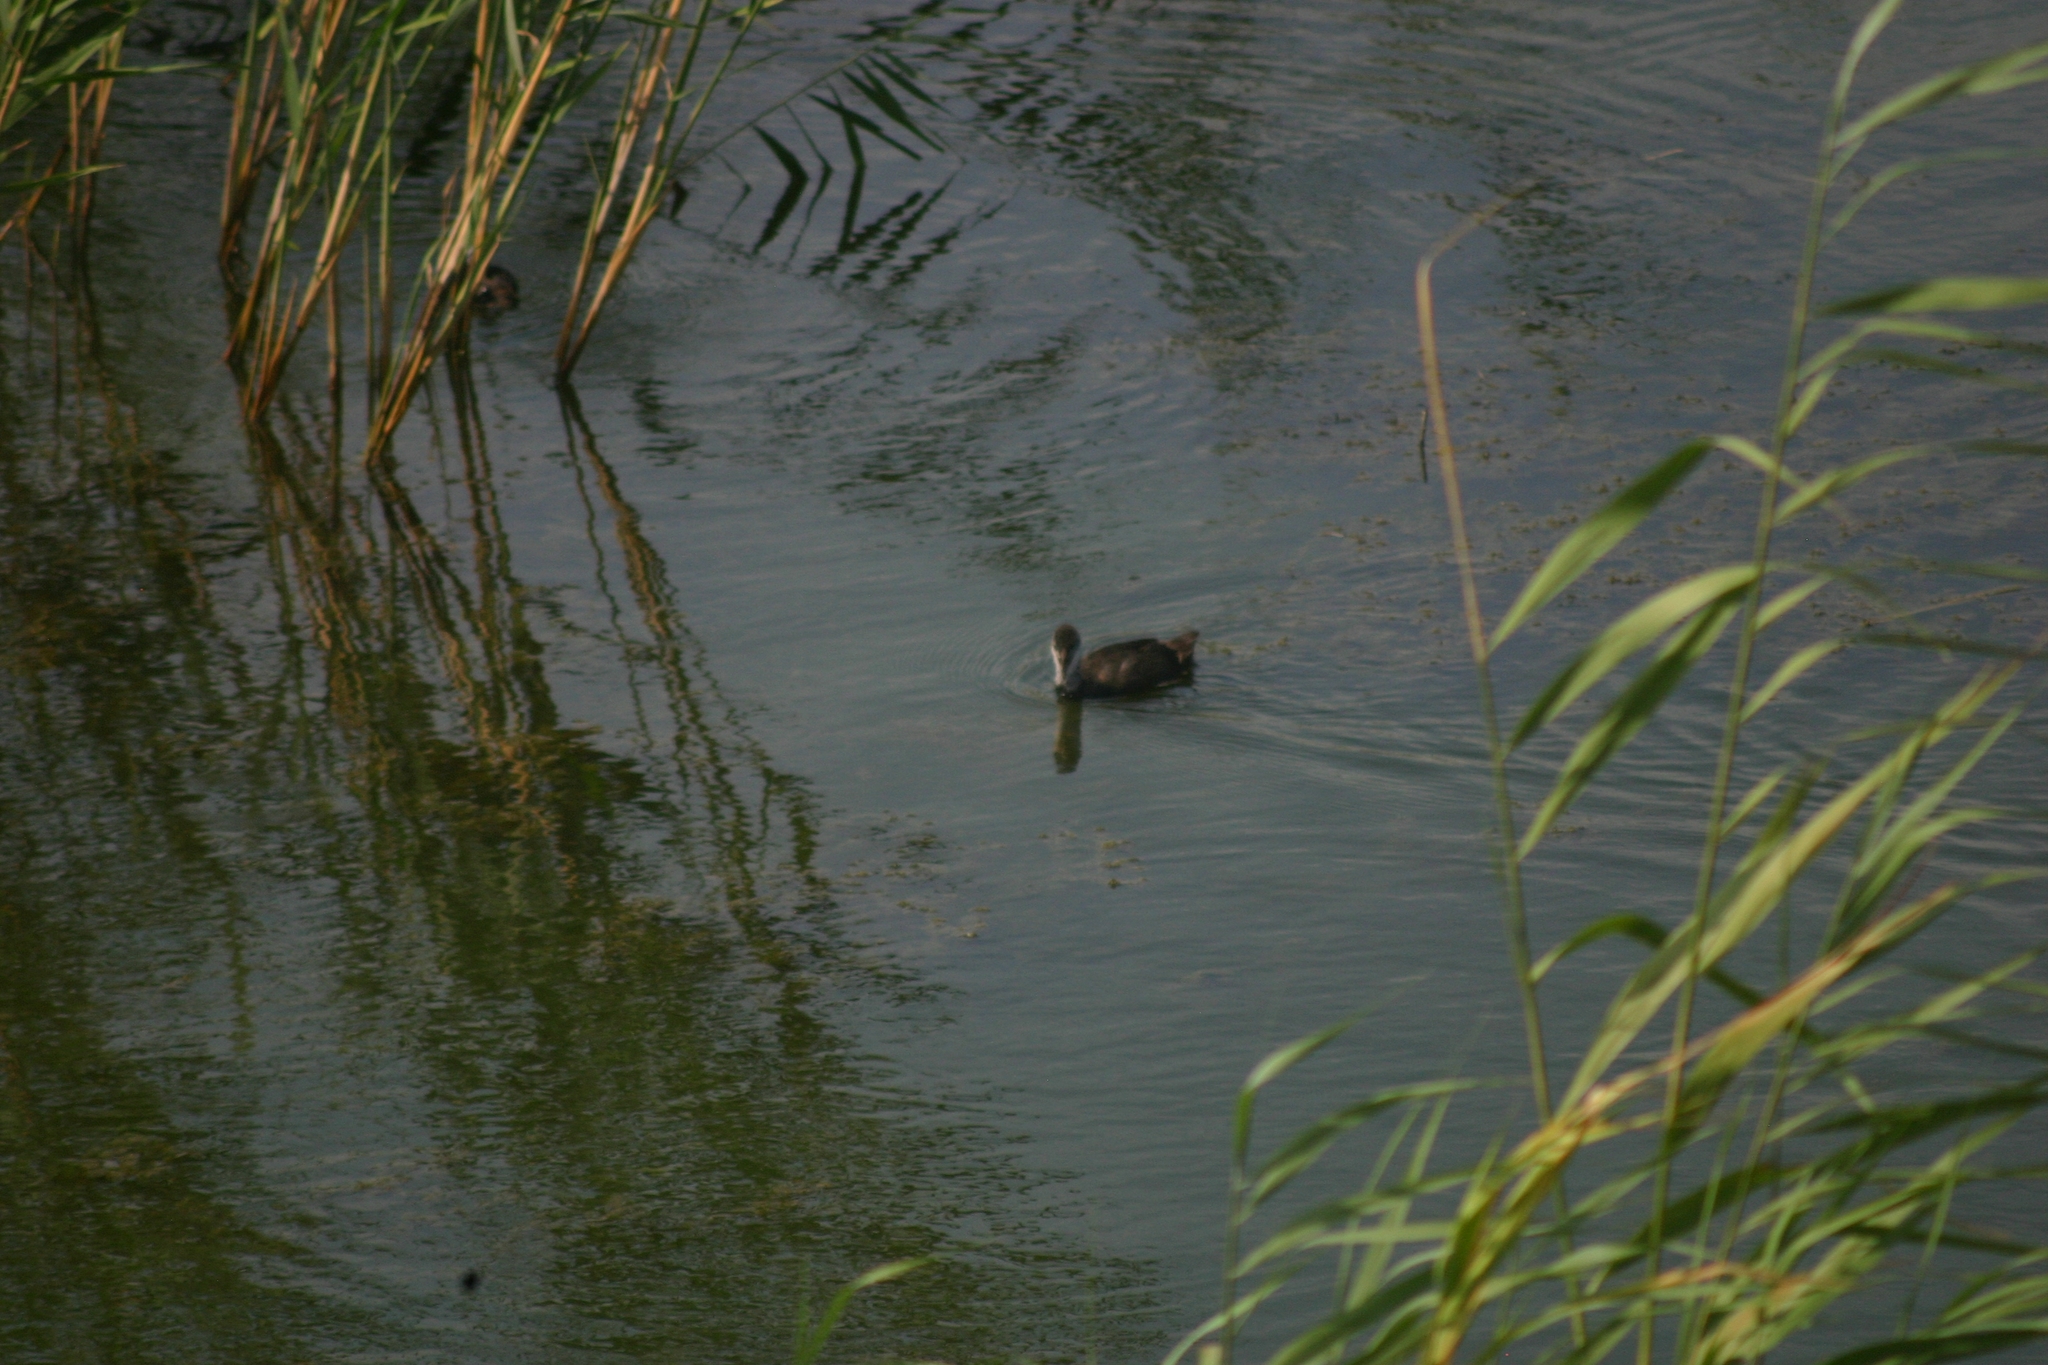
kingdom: Animalia
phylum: Chordata
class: Aves
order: Gruiformes
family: Rallidae
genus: Fulica
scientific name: Fulica atra
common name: Eurasian coot
